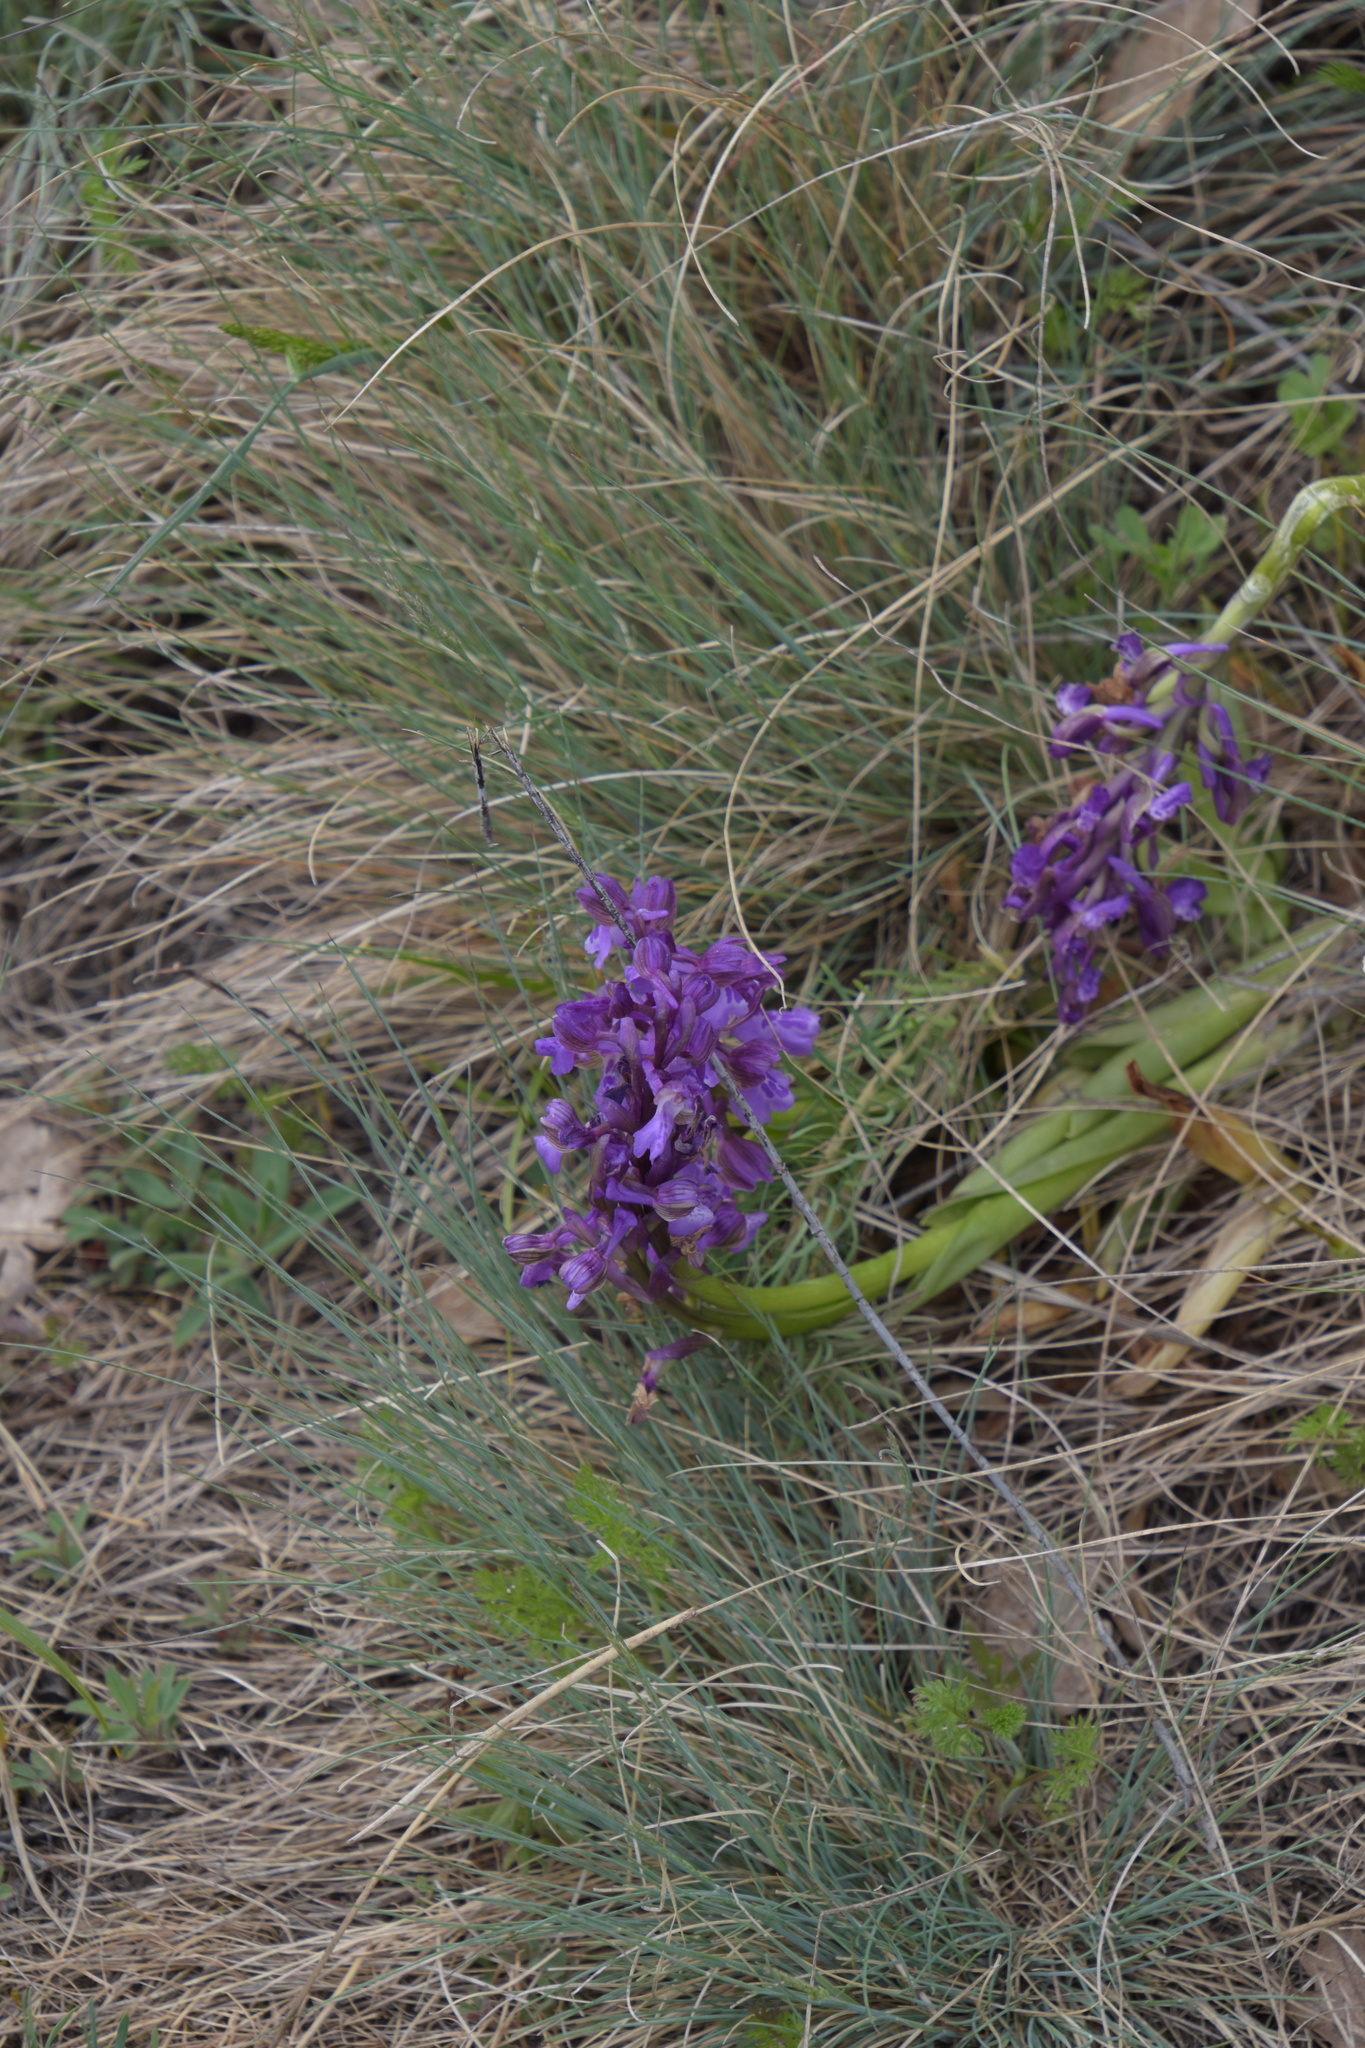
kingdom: Plantae
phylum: Tracheophyta
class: Liliopsida
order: Asparagales
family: Orchidaceae
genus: Anacamptis
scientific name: Anacamptis morio
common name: Green-winged orchid
